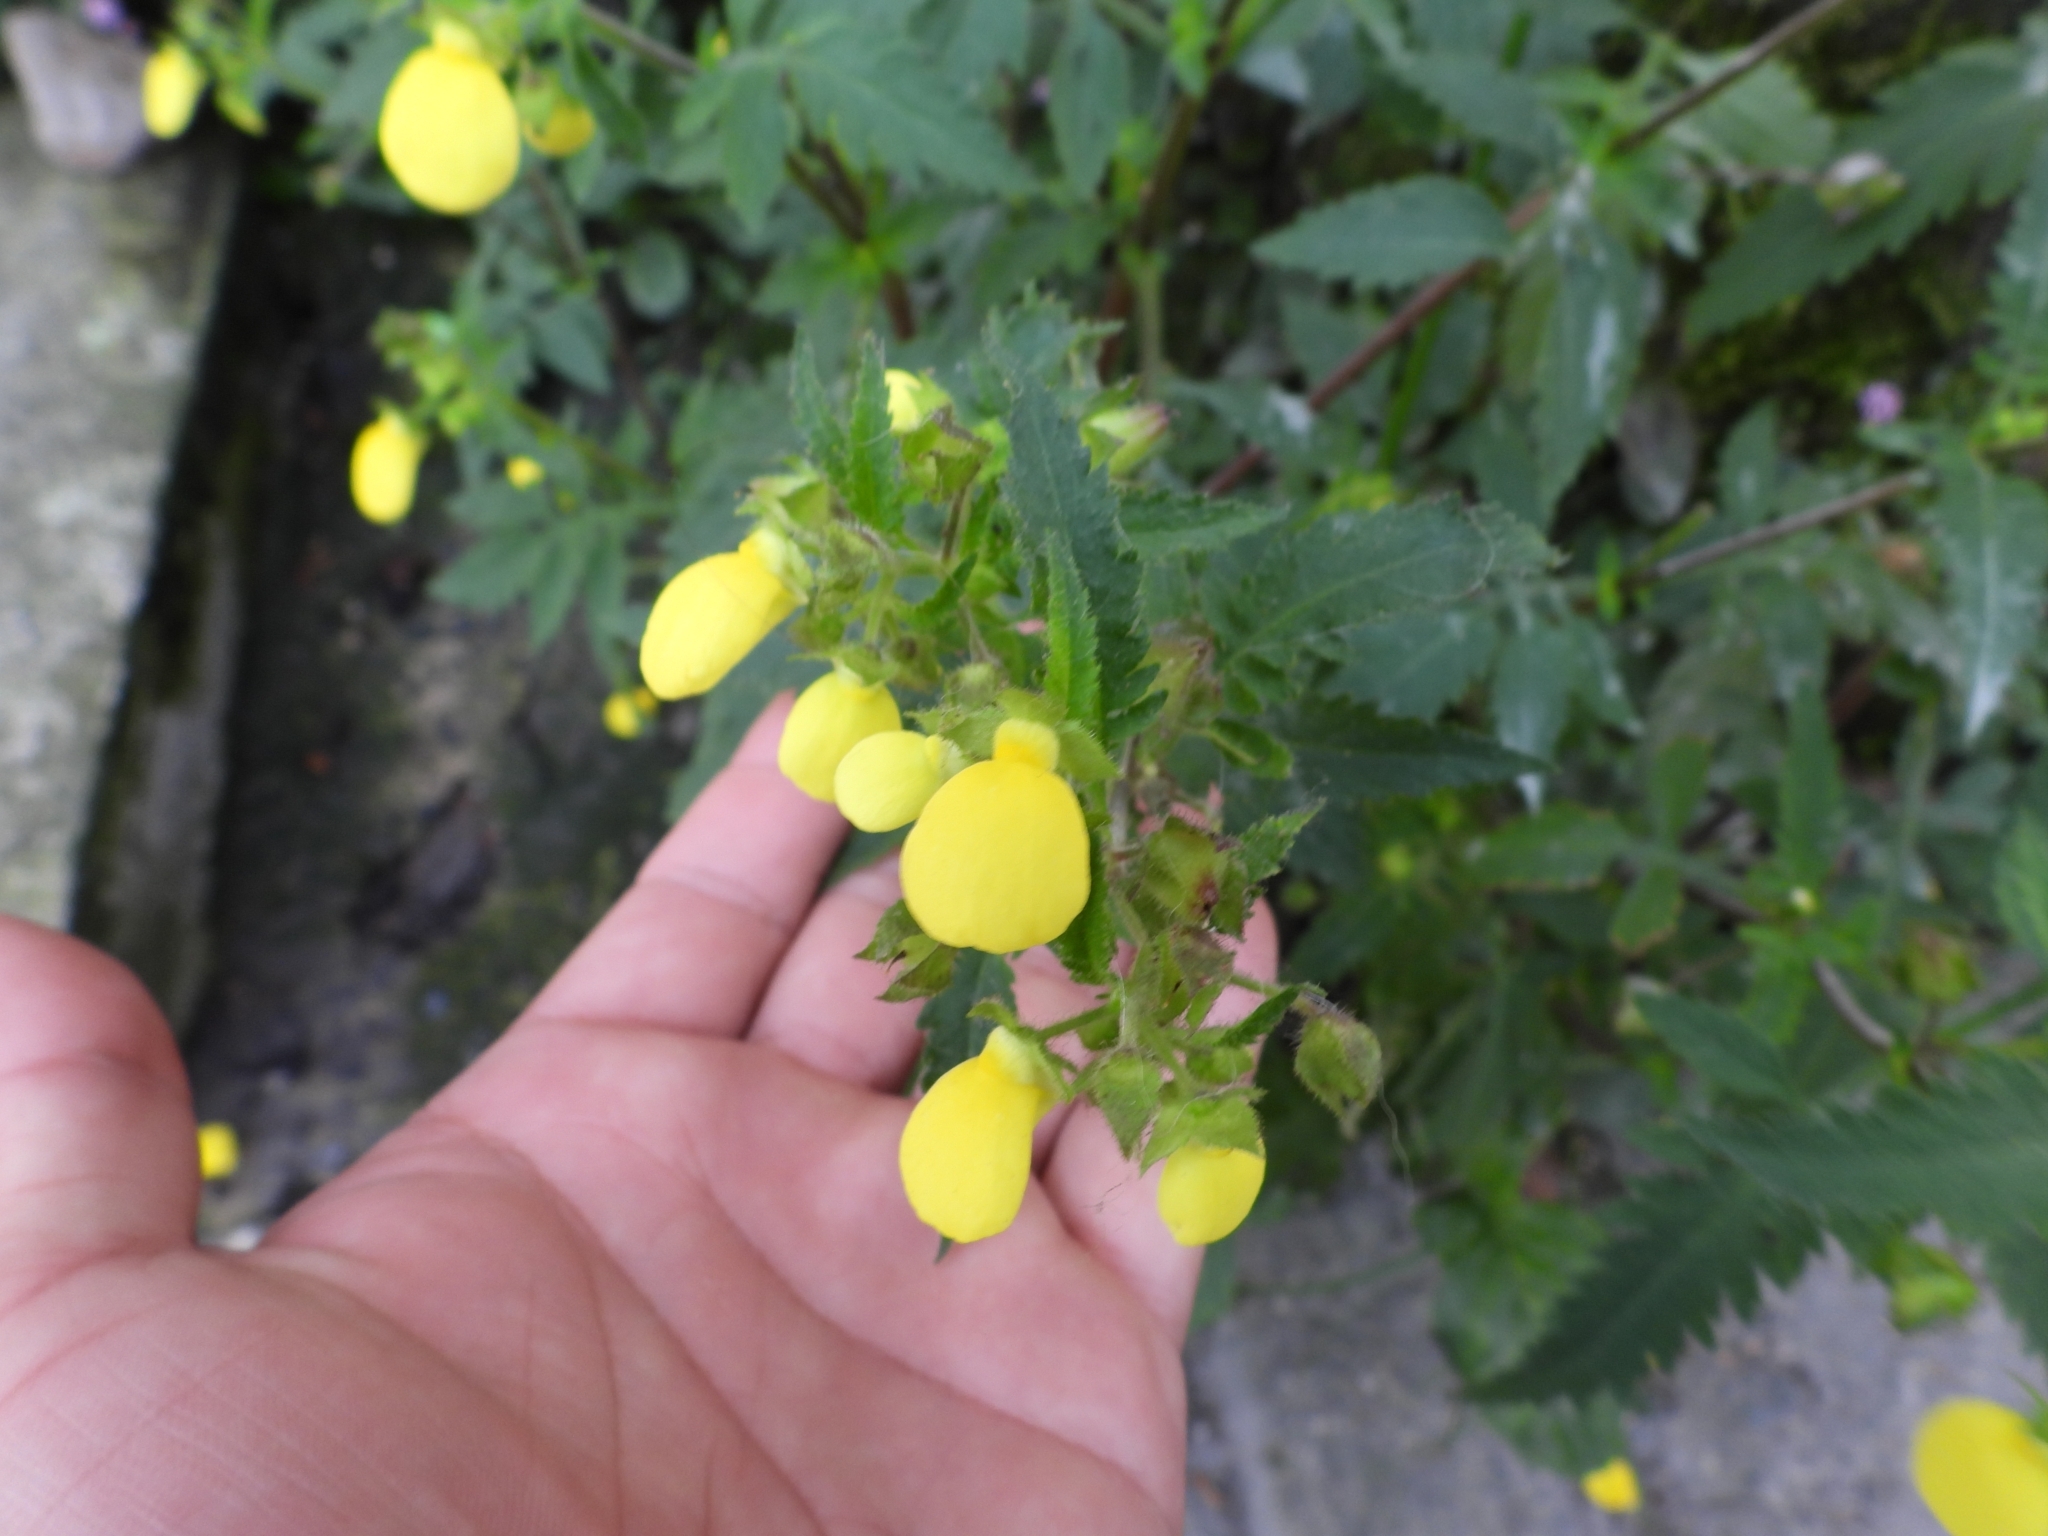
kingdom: Plantae
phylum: Tracheophyta
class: Magnoliopsida
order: Lamiales
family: Calceolariaceae
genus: Calceolaria
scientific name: Calceolaria tripartita
